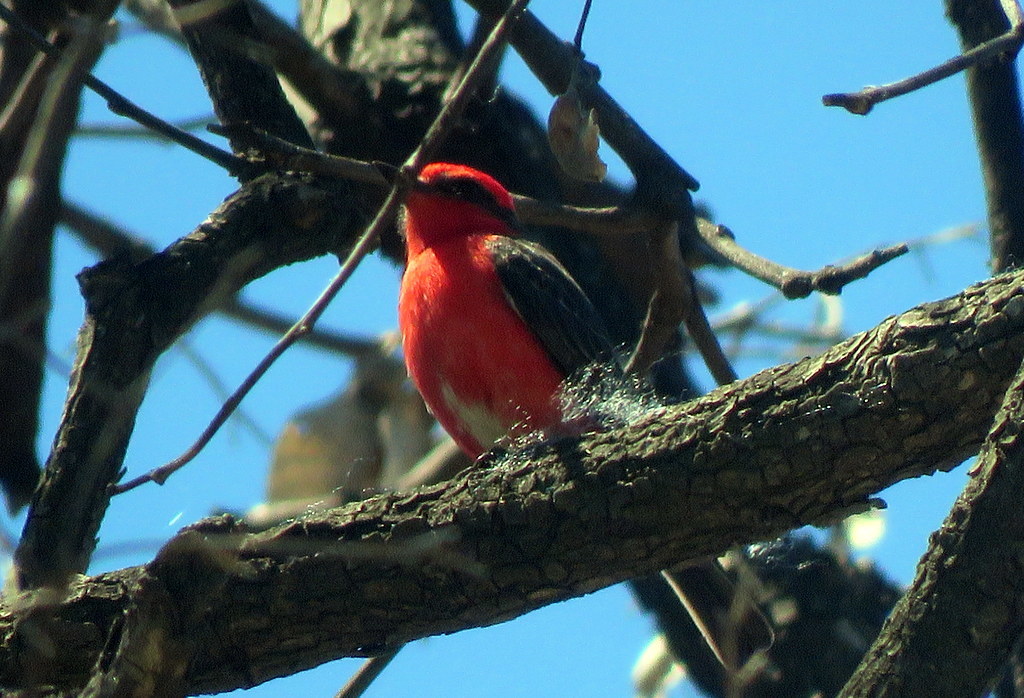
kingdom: Animalia
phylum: Chordata
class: Aves
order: Passeriformes
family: Tyrannidae
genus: Pyrocephalus
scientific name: Pyrocephalus rubinus
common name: Vermilion flycatcher
